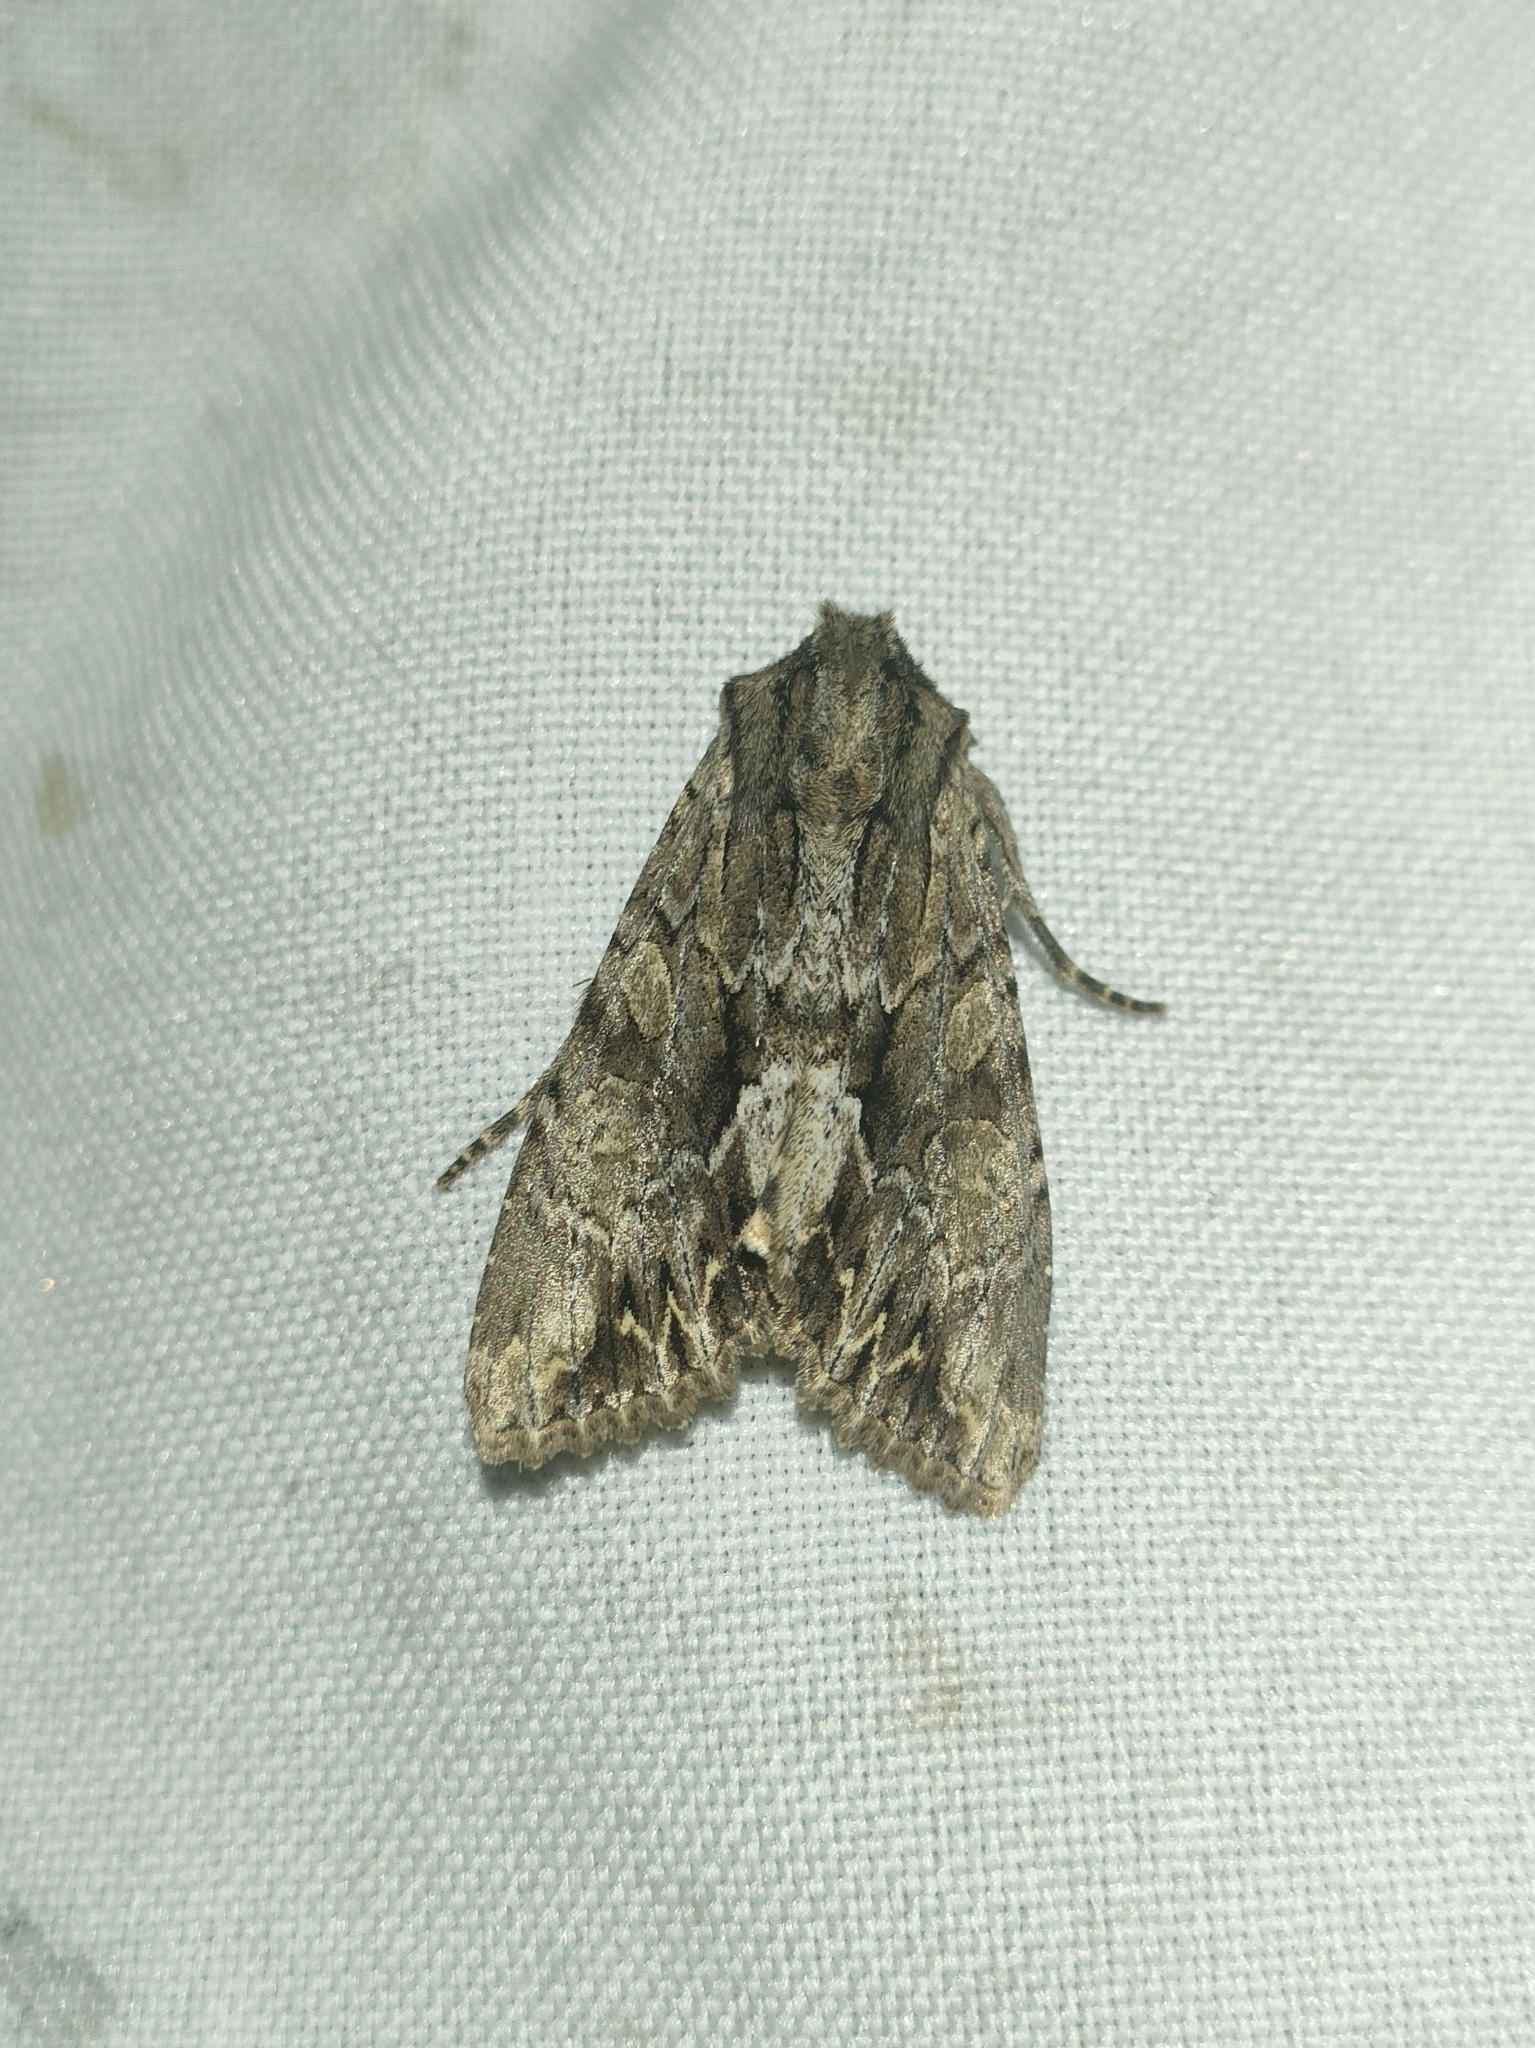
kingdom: Animalia
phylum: Arthropoda
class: Insecta
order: Lepidoptera
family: Noctuidae
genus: Apamea
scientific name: Apamea monoglypha
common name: Dark arches
